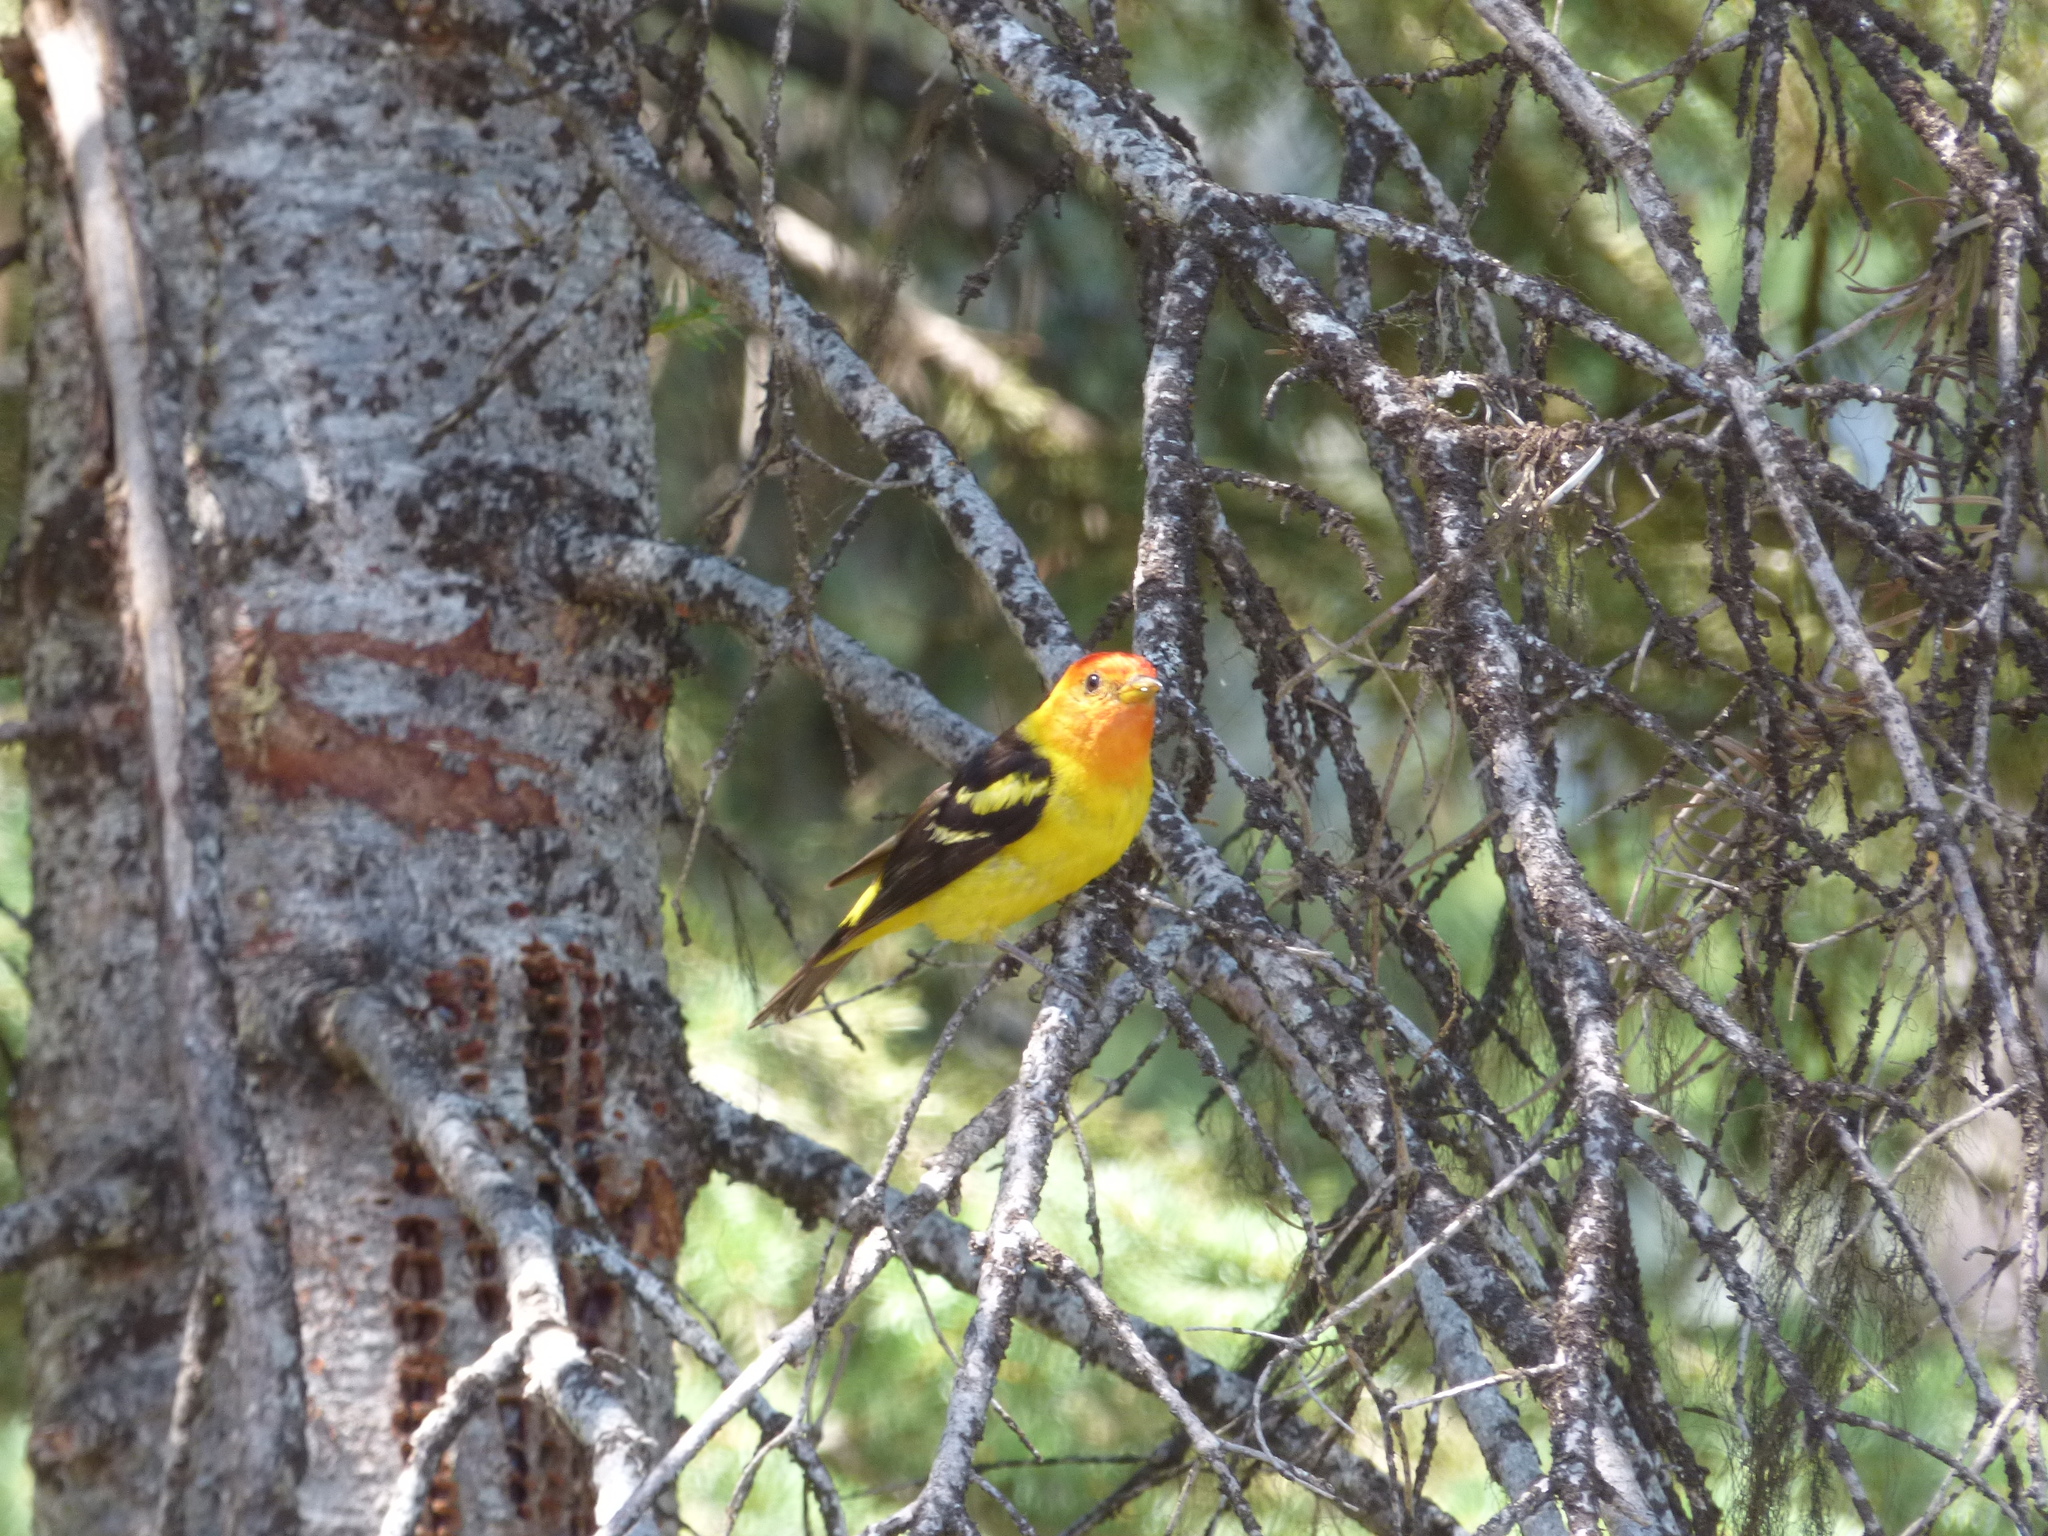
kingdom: Animalia
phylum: Chordata
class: Aves
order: Passeriformes
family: Cardinalidae
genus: Piranga
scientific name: Piranga ludoviciana
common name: Western tanager
